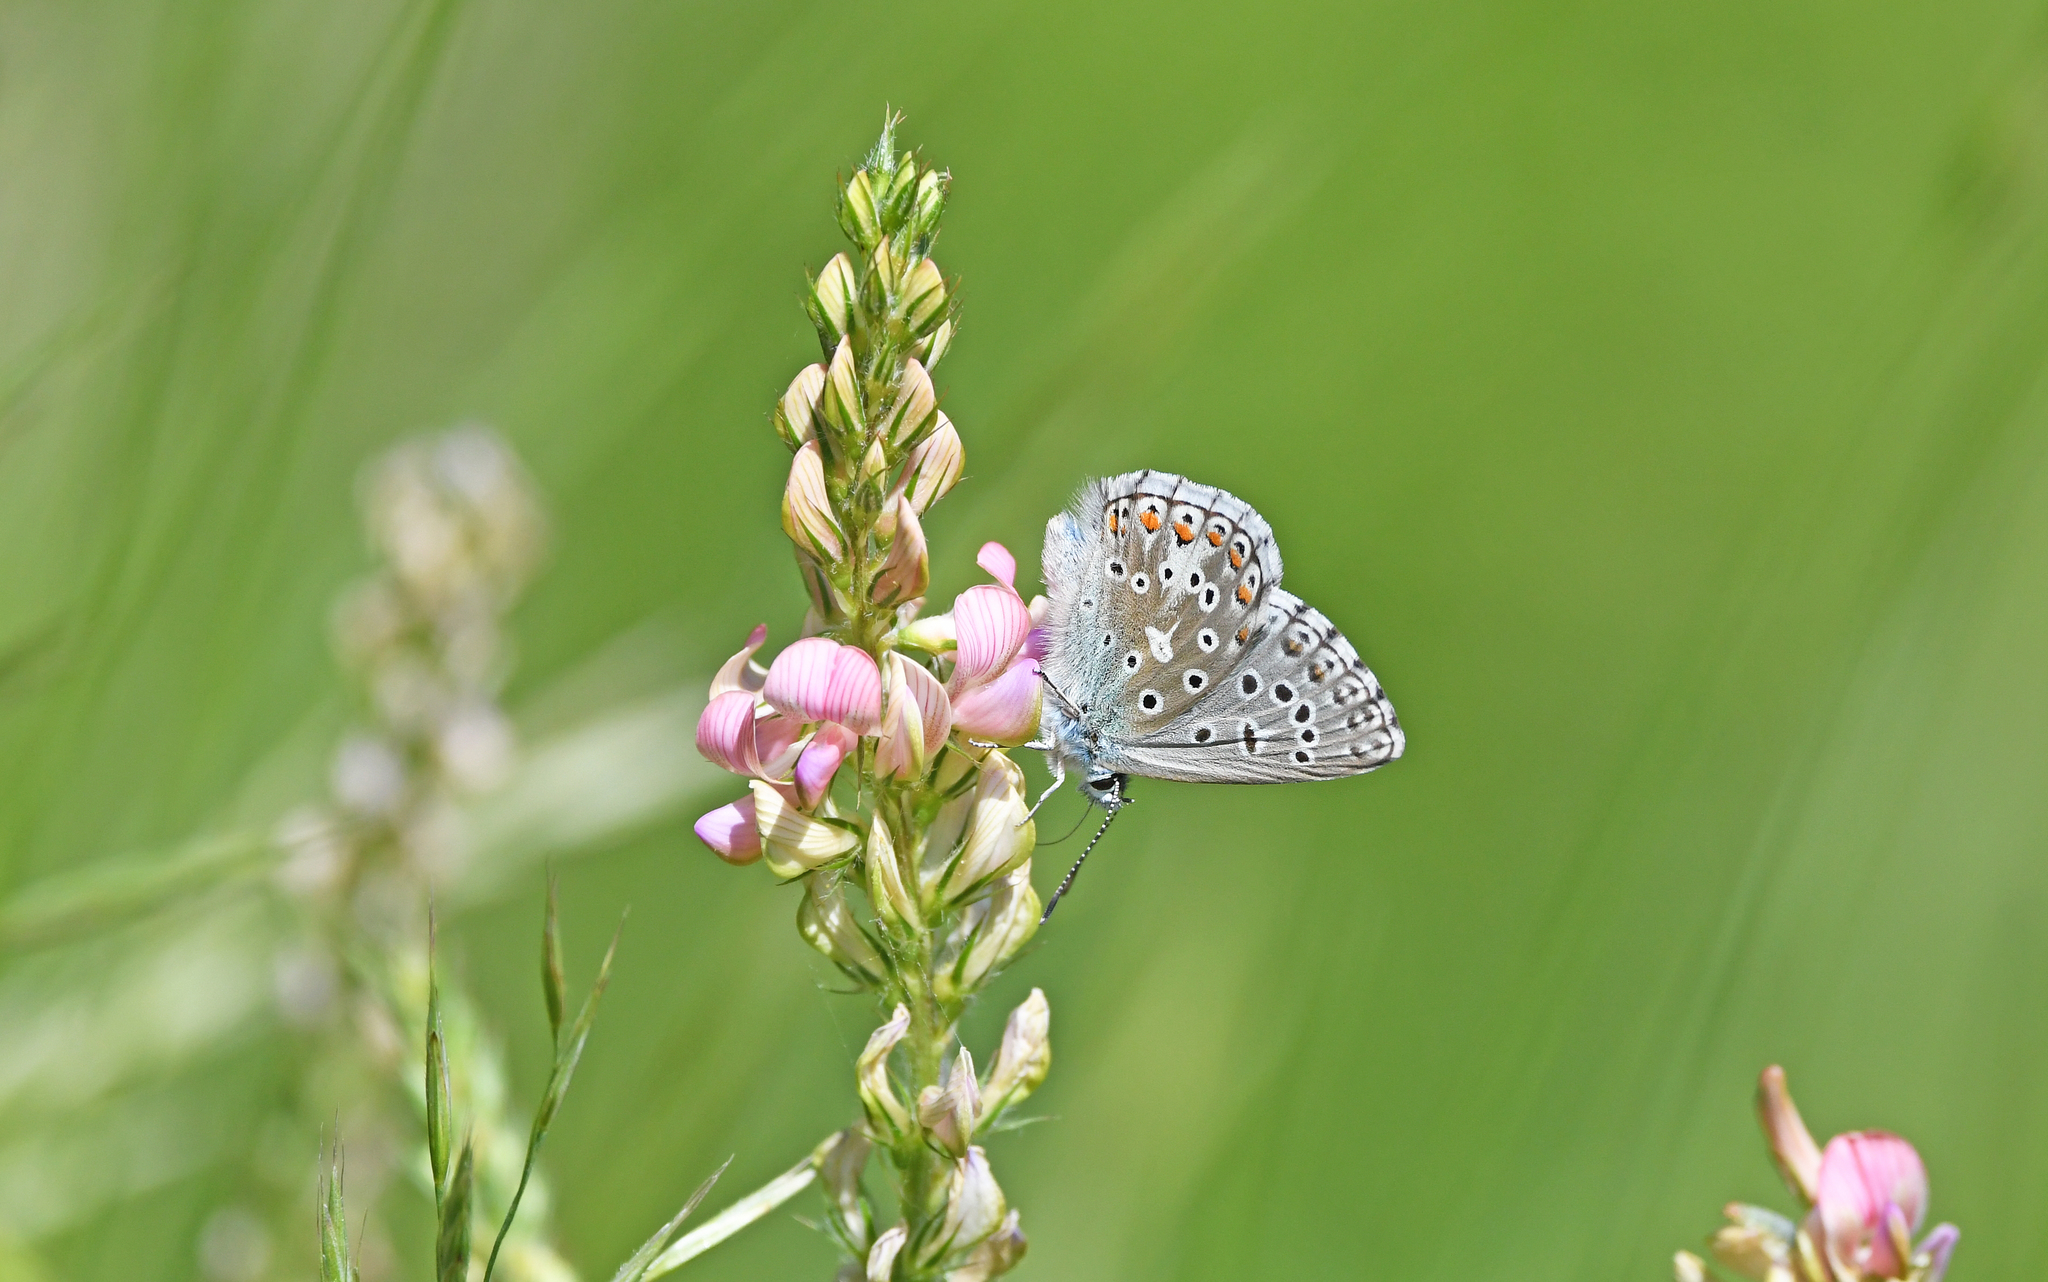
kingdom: Animalia
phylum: Arthropoda
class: Insecta
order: Lepidoptera
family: Lycaenidae
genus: Lysandra
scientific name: Lysandra bellargus
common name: Adonis blue
